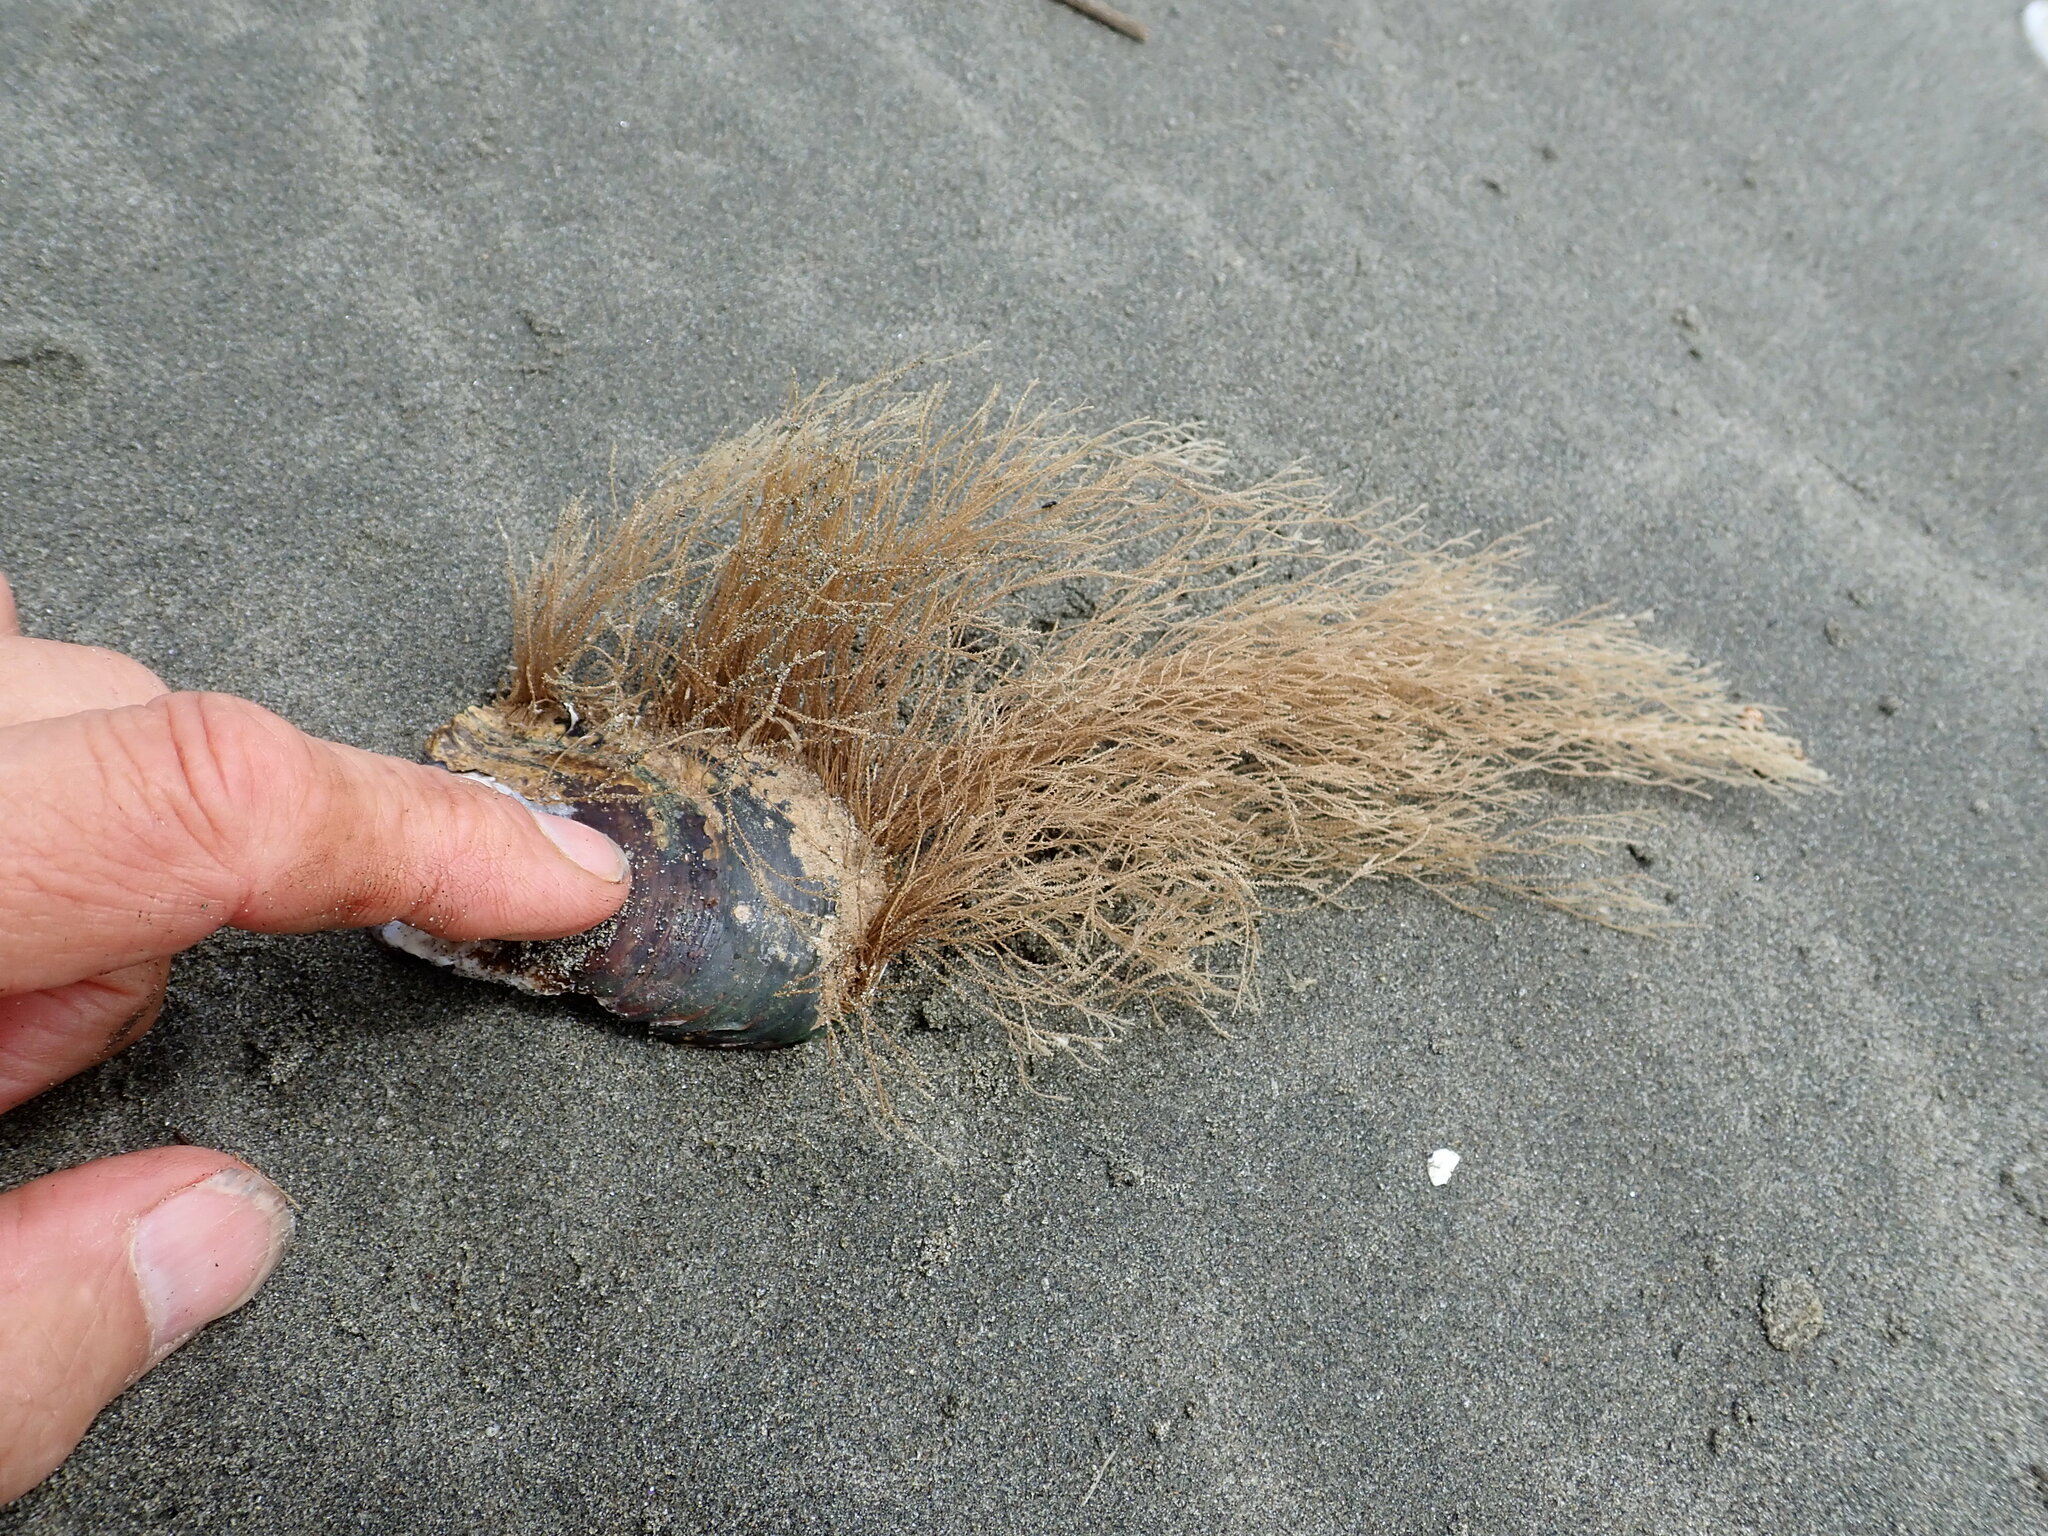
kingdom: Animalia
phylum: Cnidaria
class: Hydrozoa
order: Leptothecata
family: Sertulariidae
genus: Amphisbetia
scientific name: Amphisbetia bispinosa
